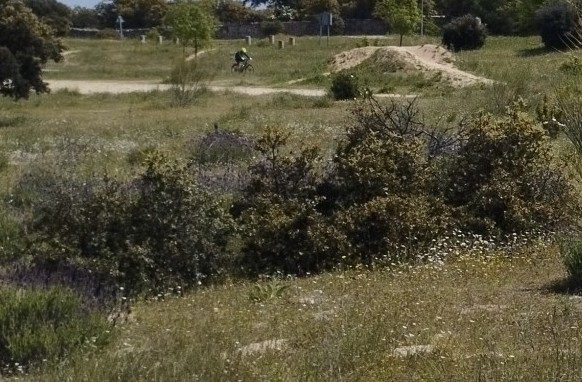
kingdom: Plantae
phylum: Tracheophyta
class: Magnoliopsida
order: Fagales
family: Fagaceae
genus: Quercus
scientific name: Quercus rotundifolia
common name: Holm oak
